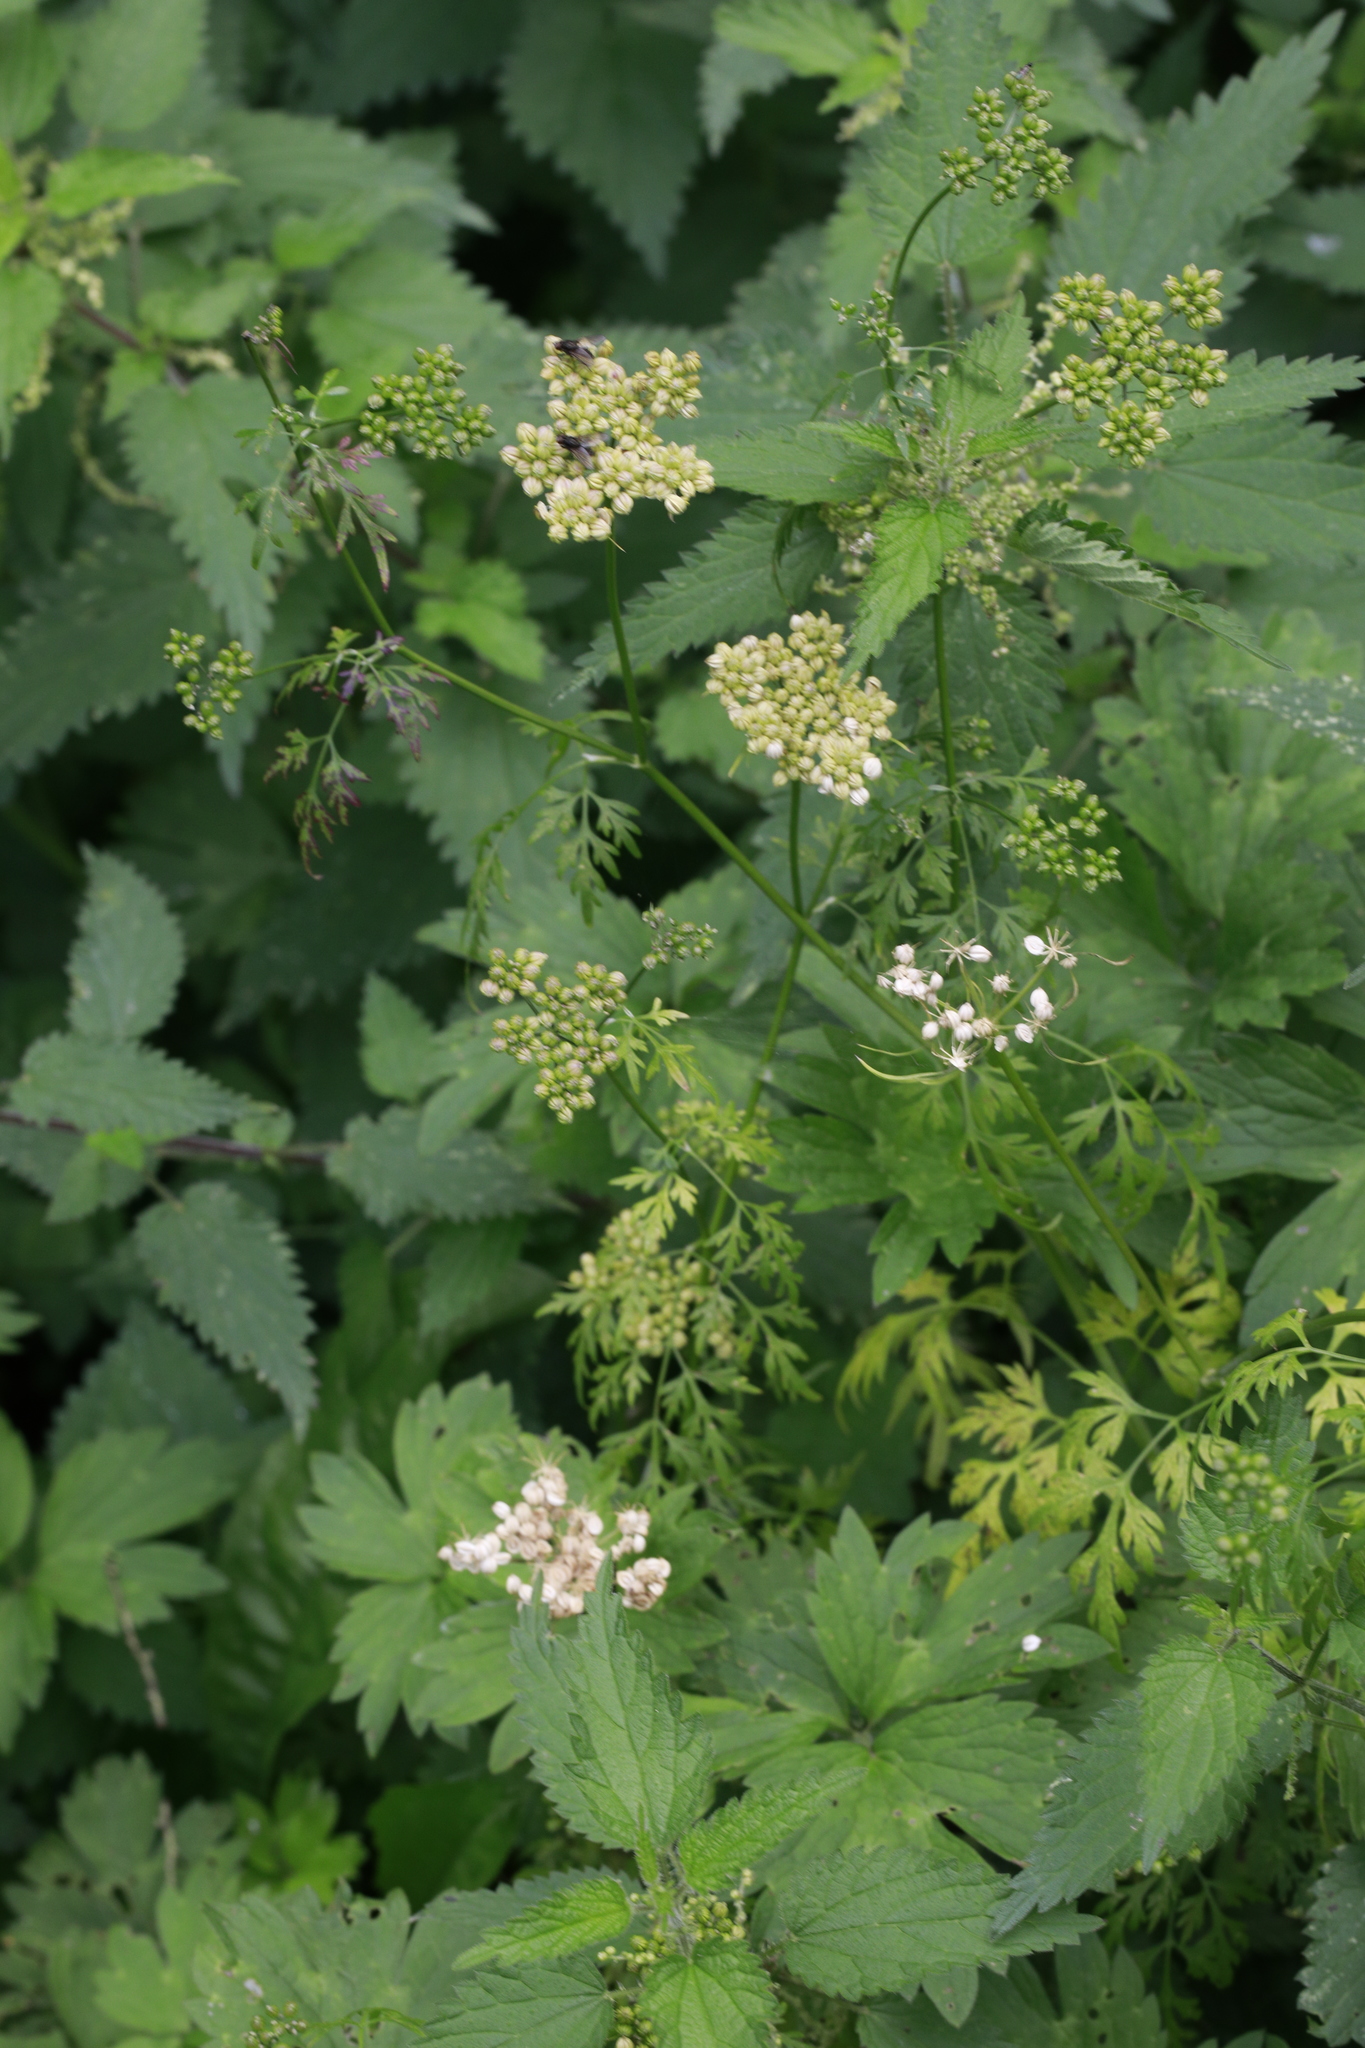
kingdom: Plantae
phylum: Tracheophyta
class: Magnoliopsida
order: Apiales
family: Apiaceae
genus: Aethusa
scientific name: Aethusa cynapium
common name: Fool's parsley
